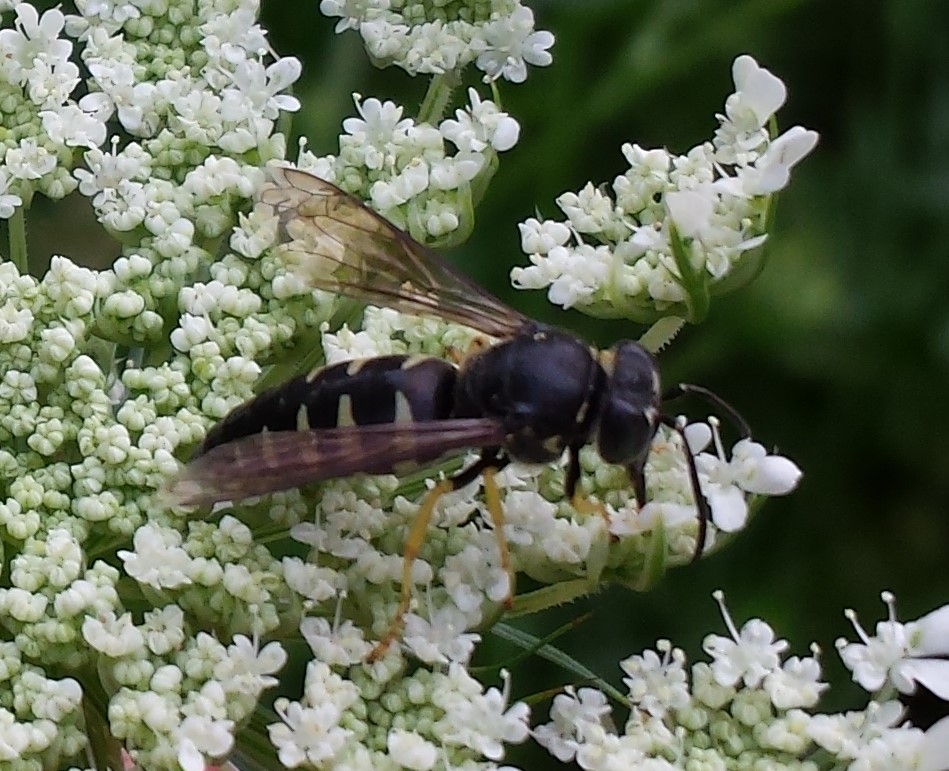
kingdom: Animalia
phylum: Arthropoda
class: Insecta
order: Hymenoptera
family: Crabronidae
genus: Bicyrtes
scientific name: Bicyrtes quadrifasciatus
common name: Four-banded stink bug hunter wasp
